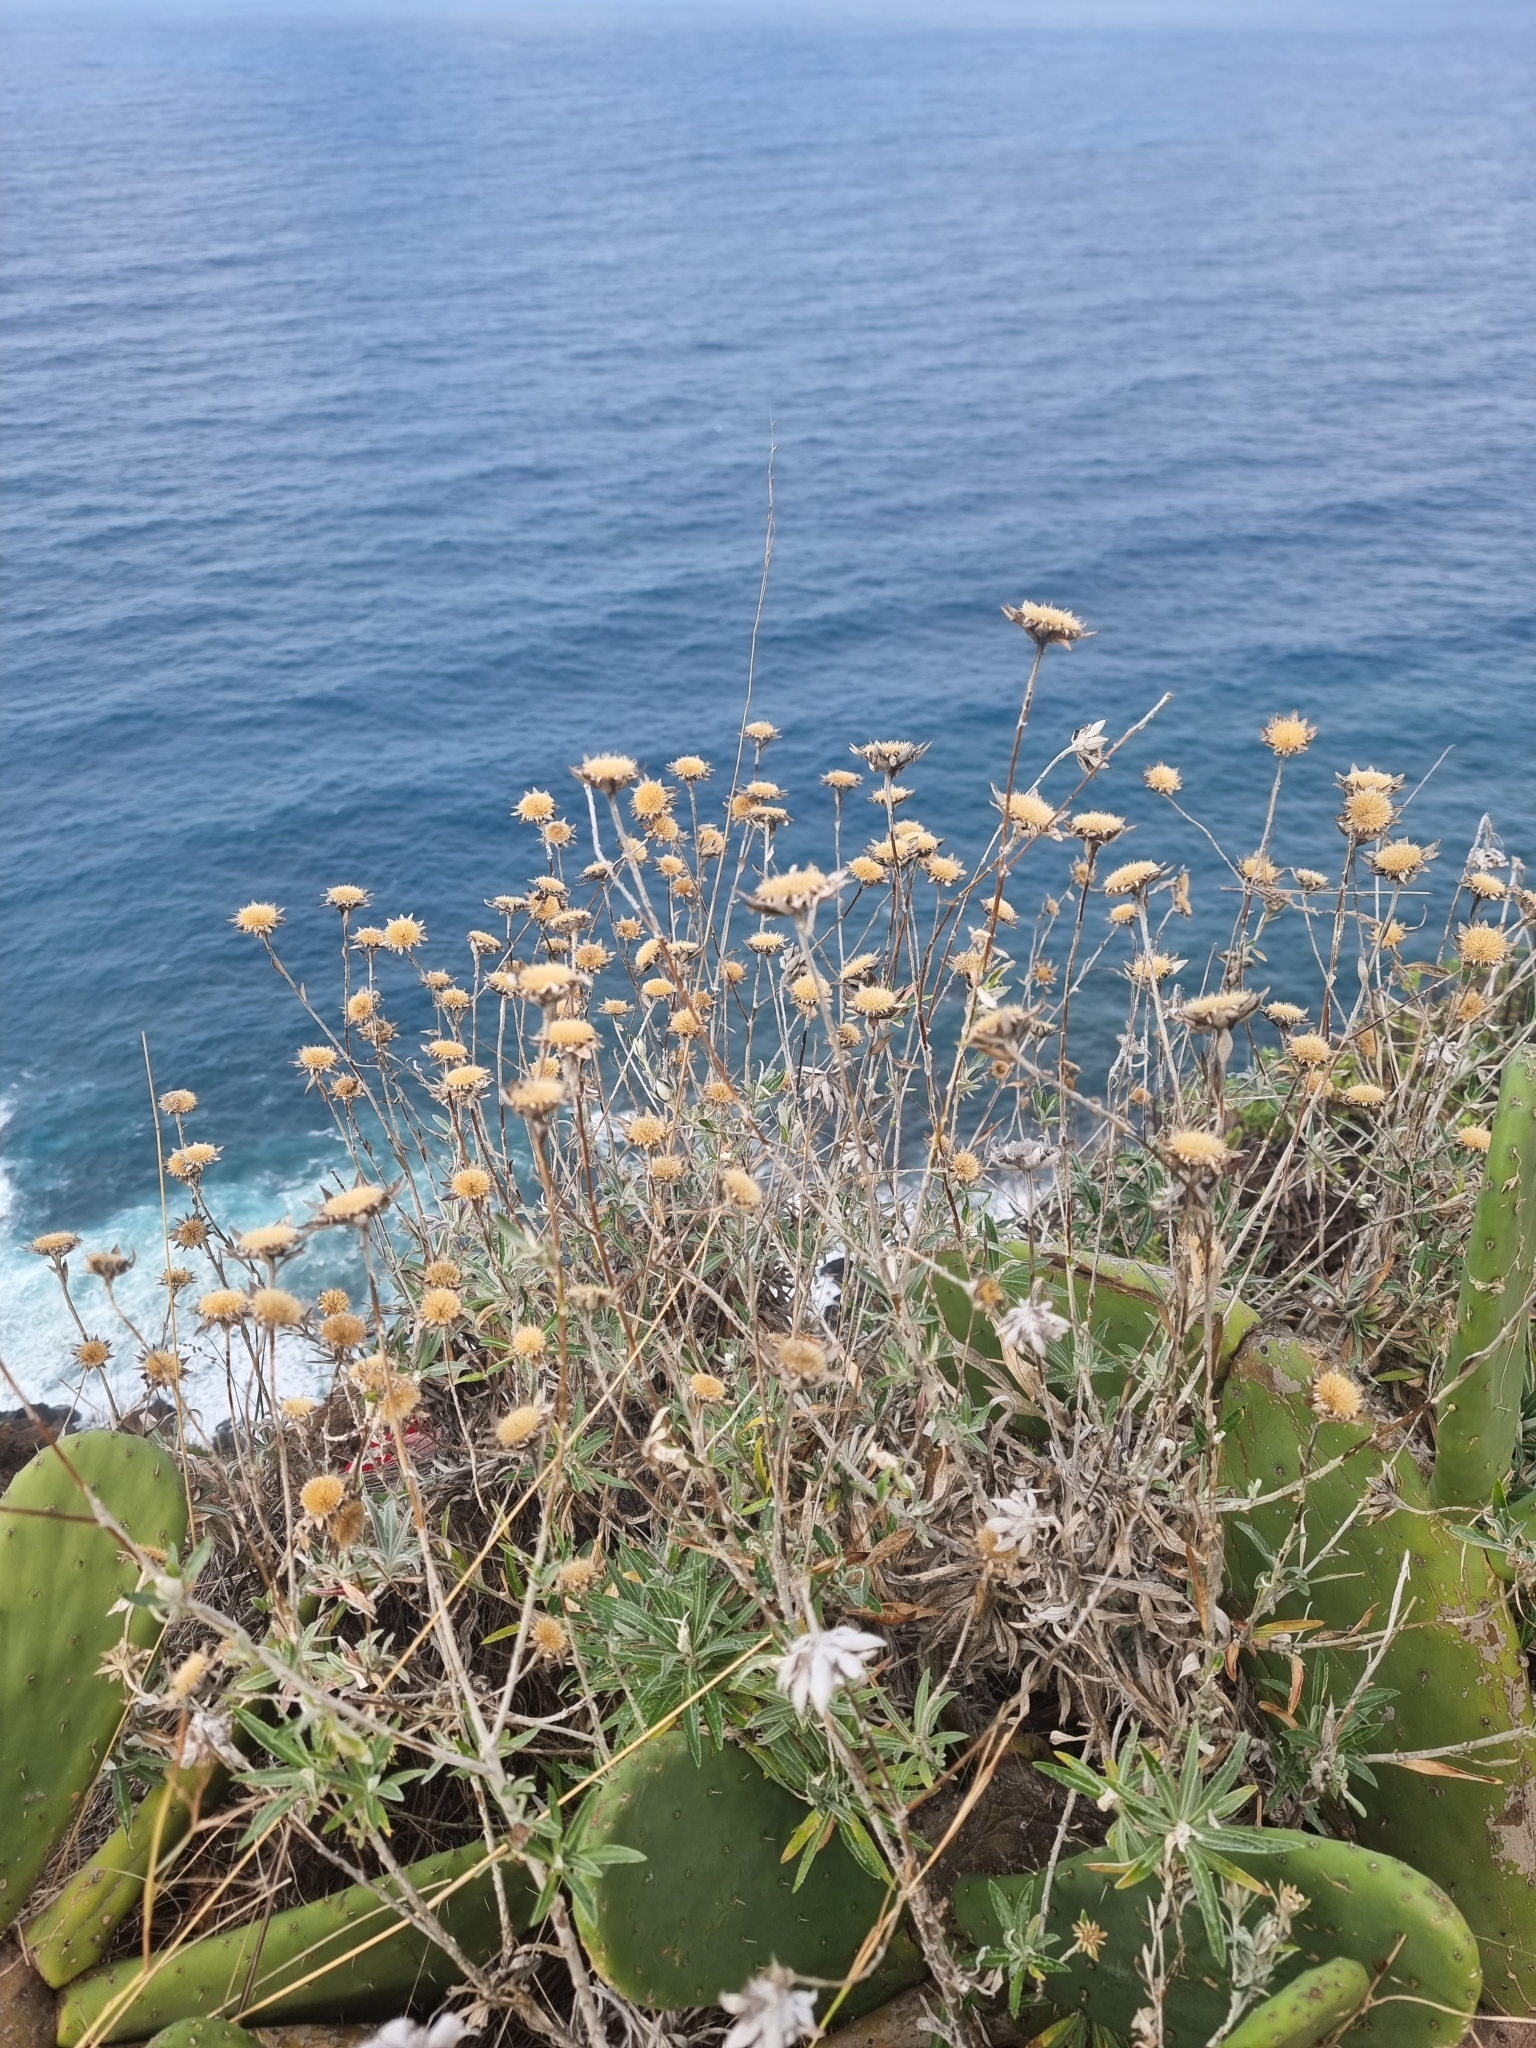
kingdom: Plantae
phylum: Tracheophyta
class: Magnoliopsida
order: Asterales
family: Asteraceae
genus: Carlina
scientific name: Carlina salicifolia
